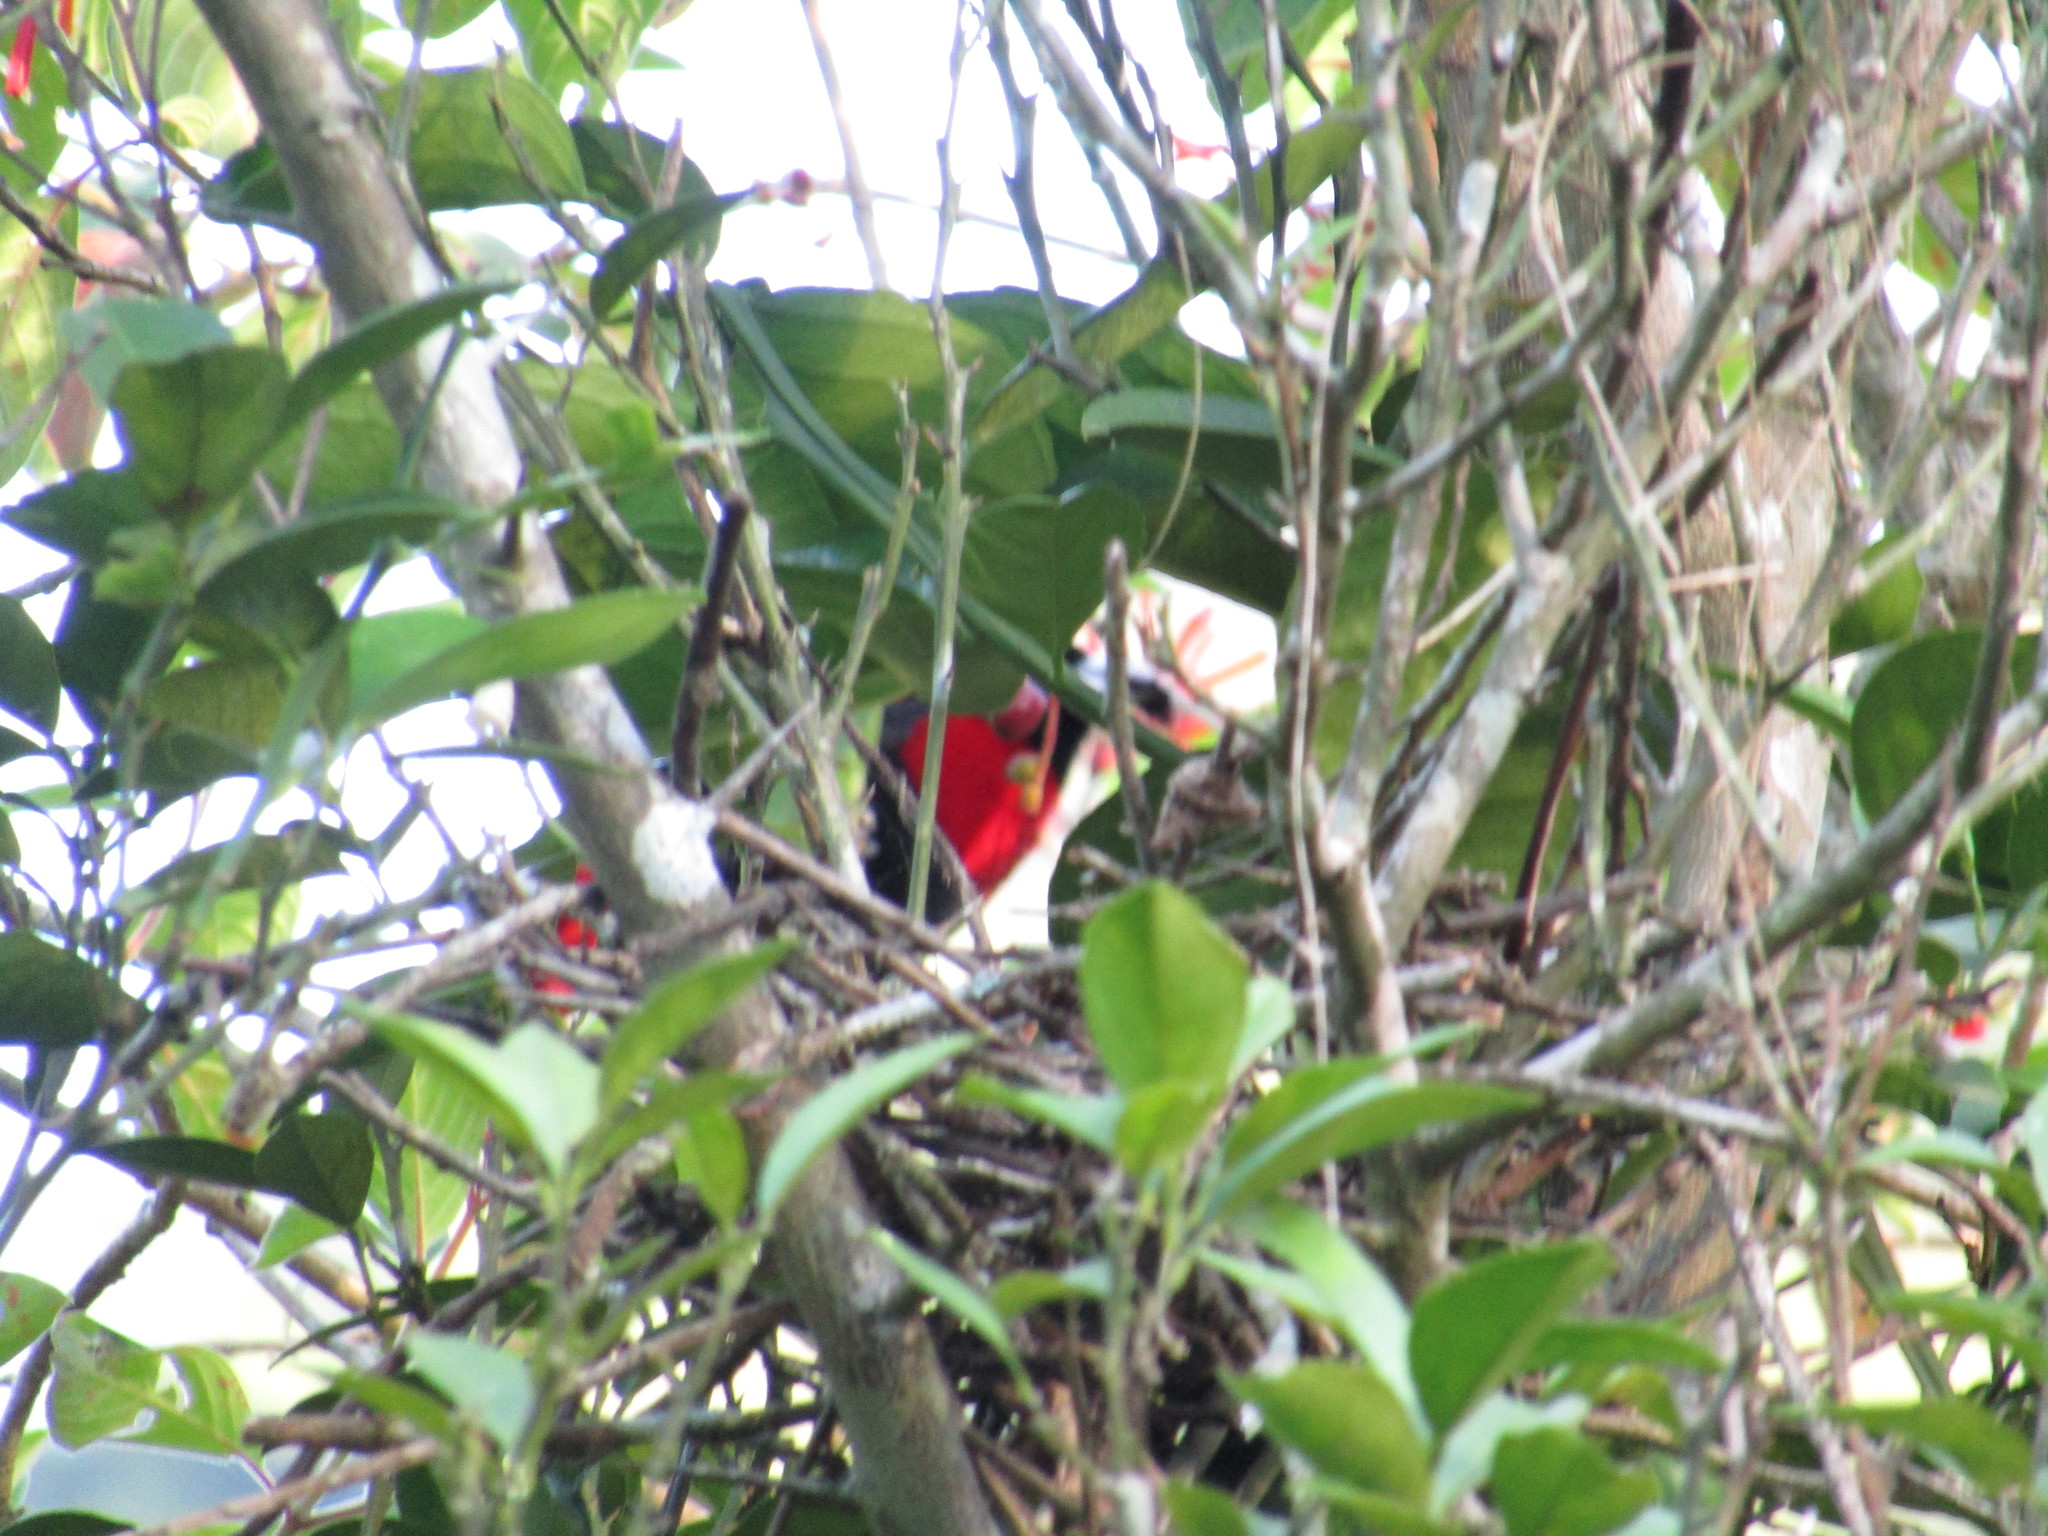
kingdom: Animalia
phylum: Chordata
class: Aves
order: Passeriformes
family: Thraupidae
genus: Ramphocelus
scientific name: Ramphocelus sanguinolentus
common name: Crimson-collared tanager
